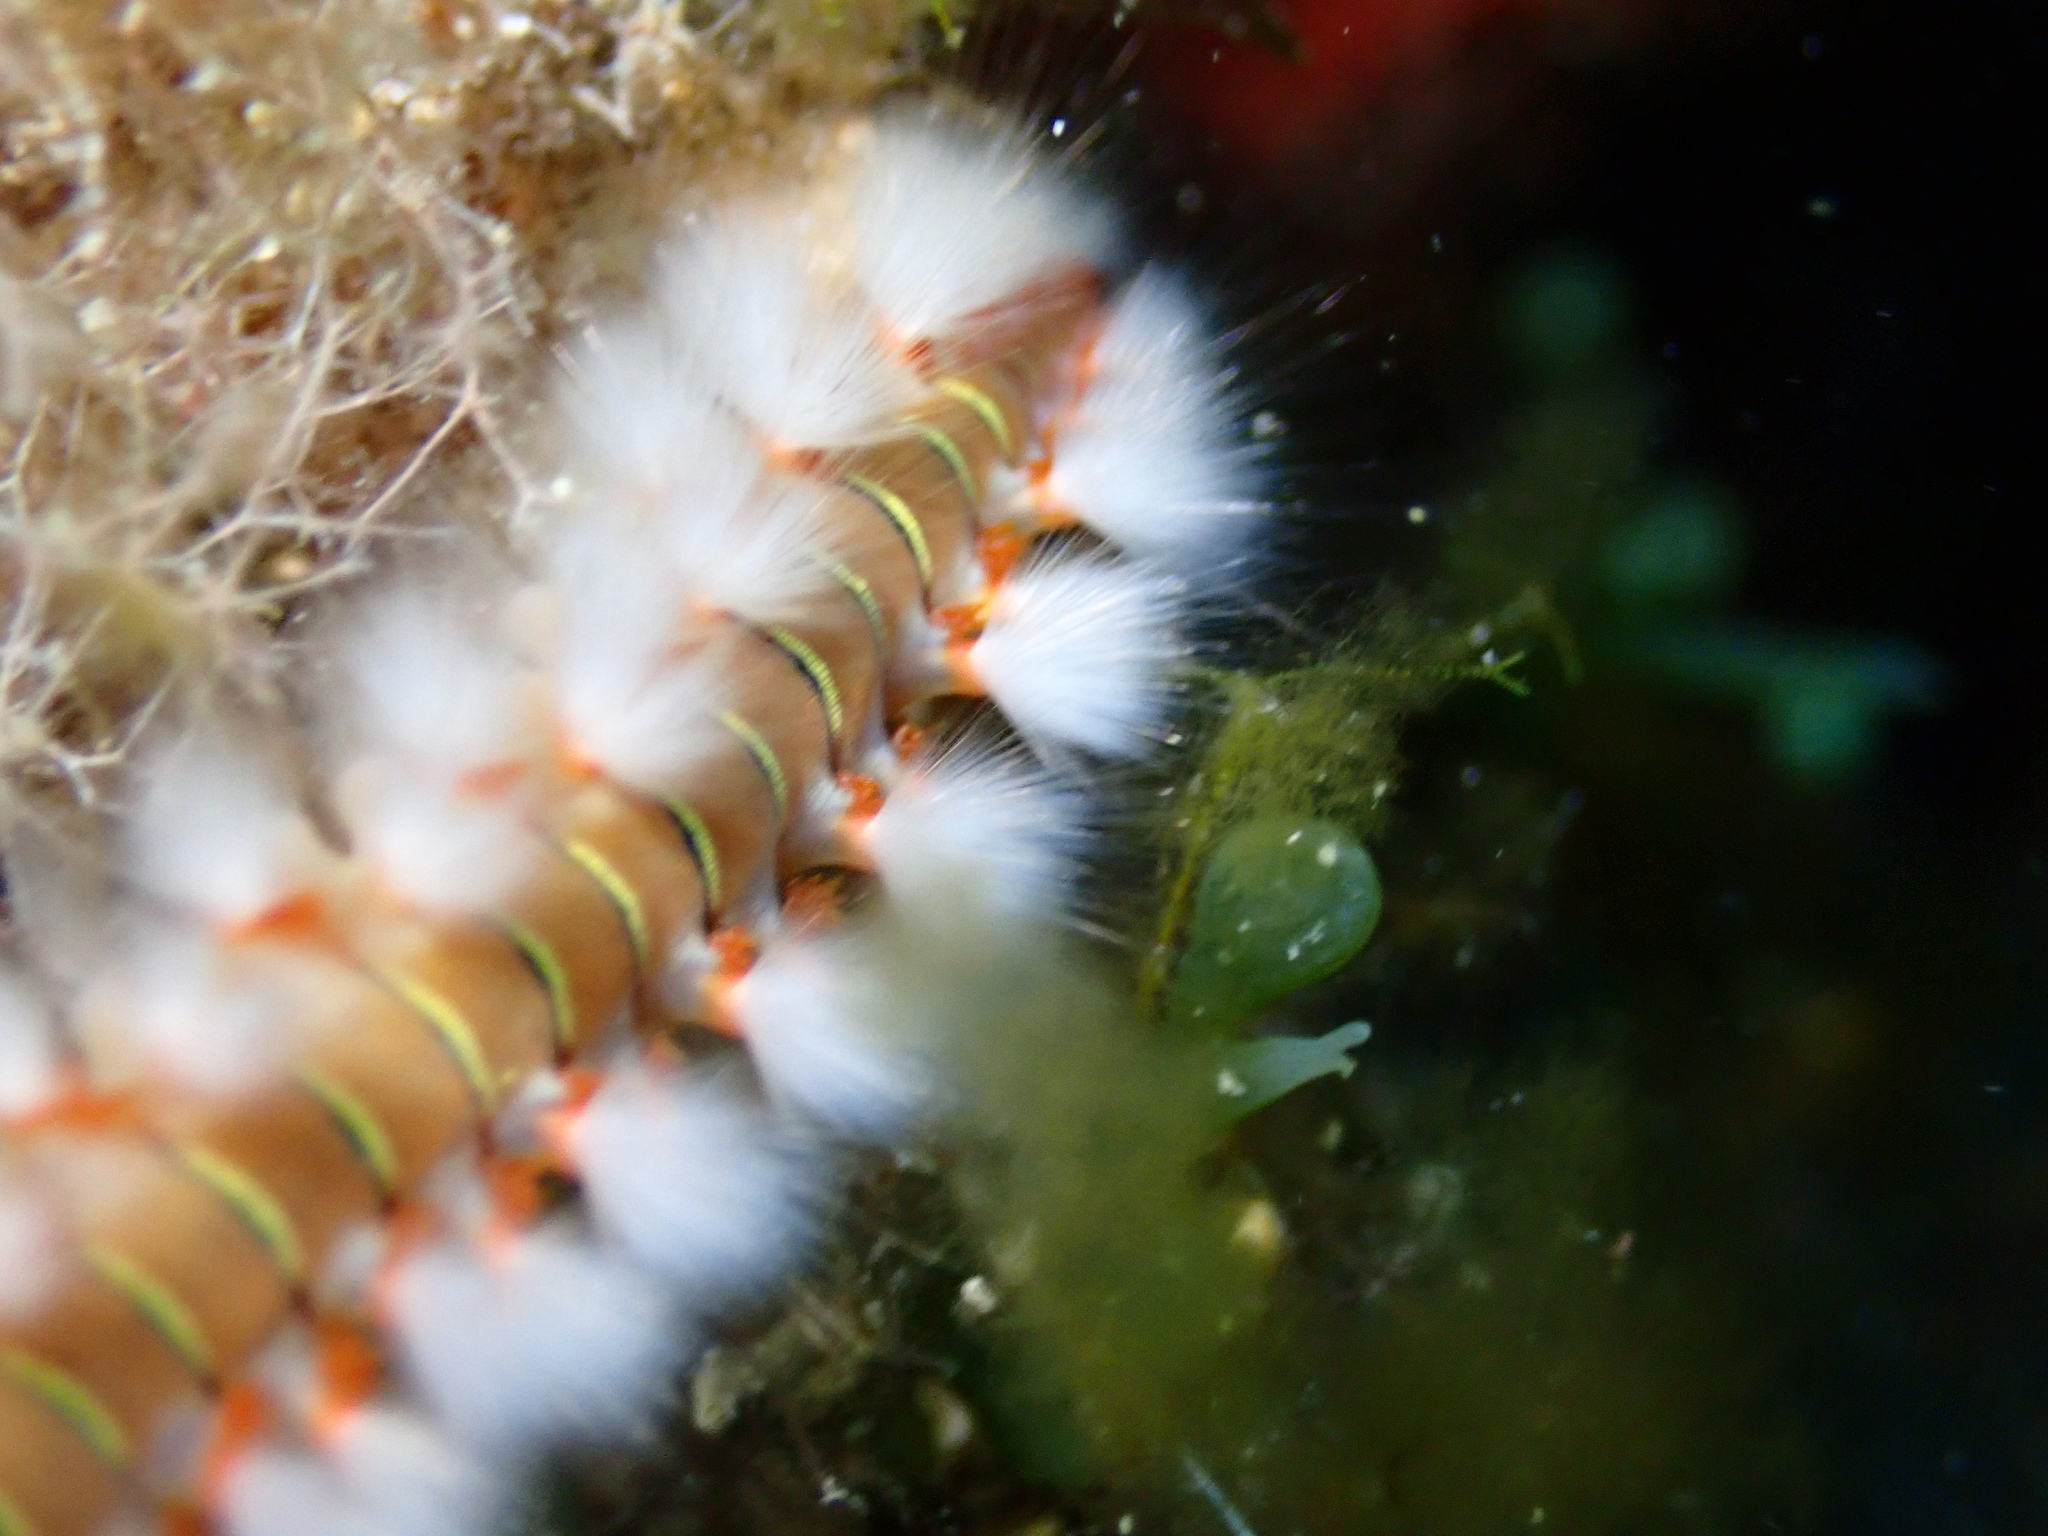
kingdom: Animalia
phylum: Annelida
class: Polychaeta
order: Amphinomida
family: Amphinomidae
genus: Hermodice
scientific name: Hermodice carunculata
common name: Bearded fireworm
